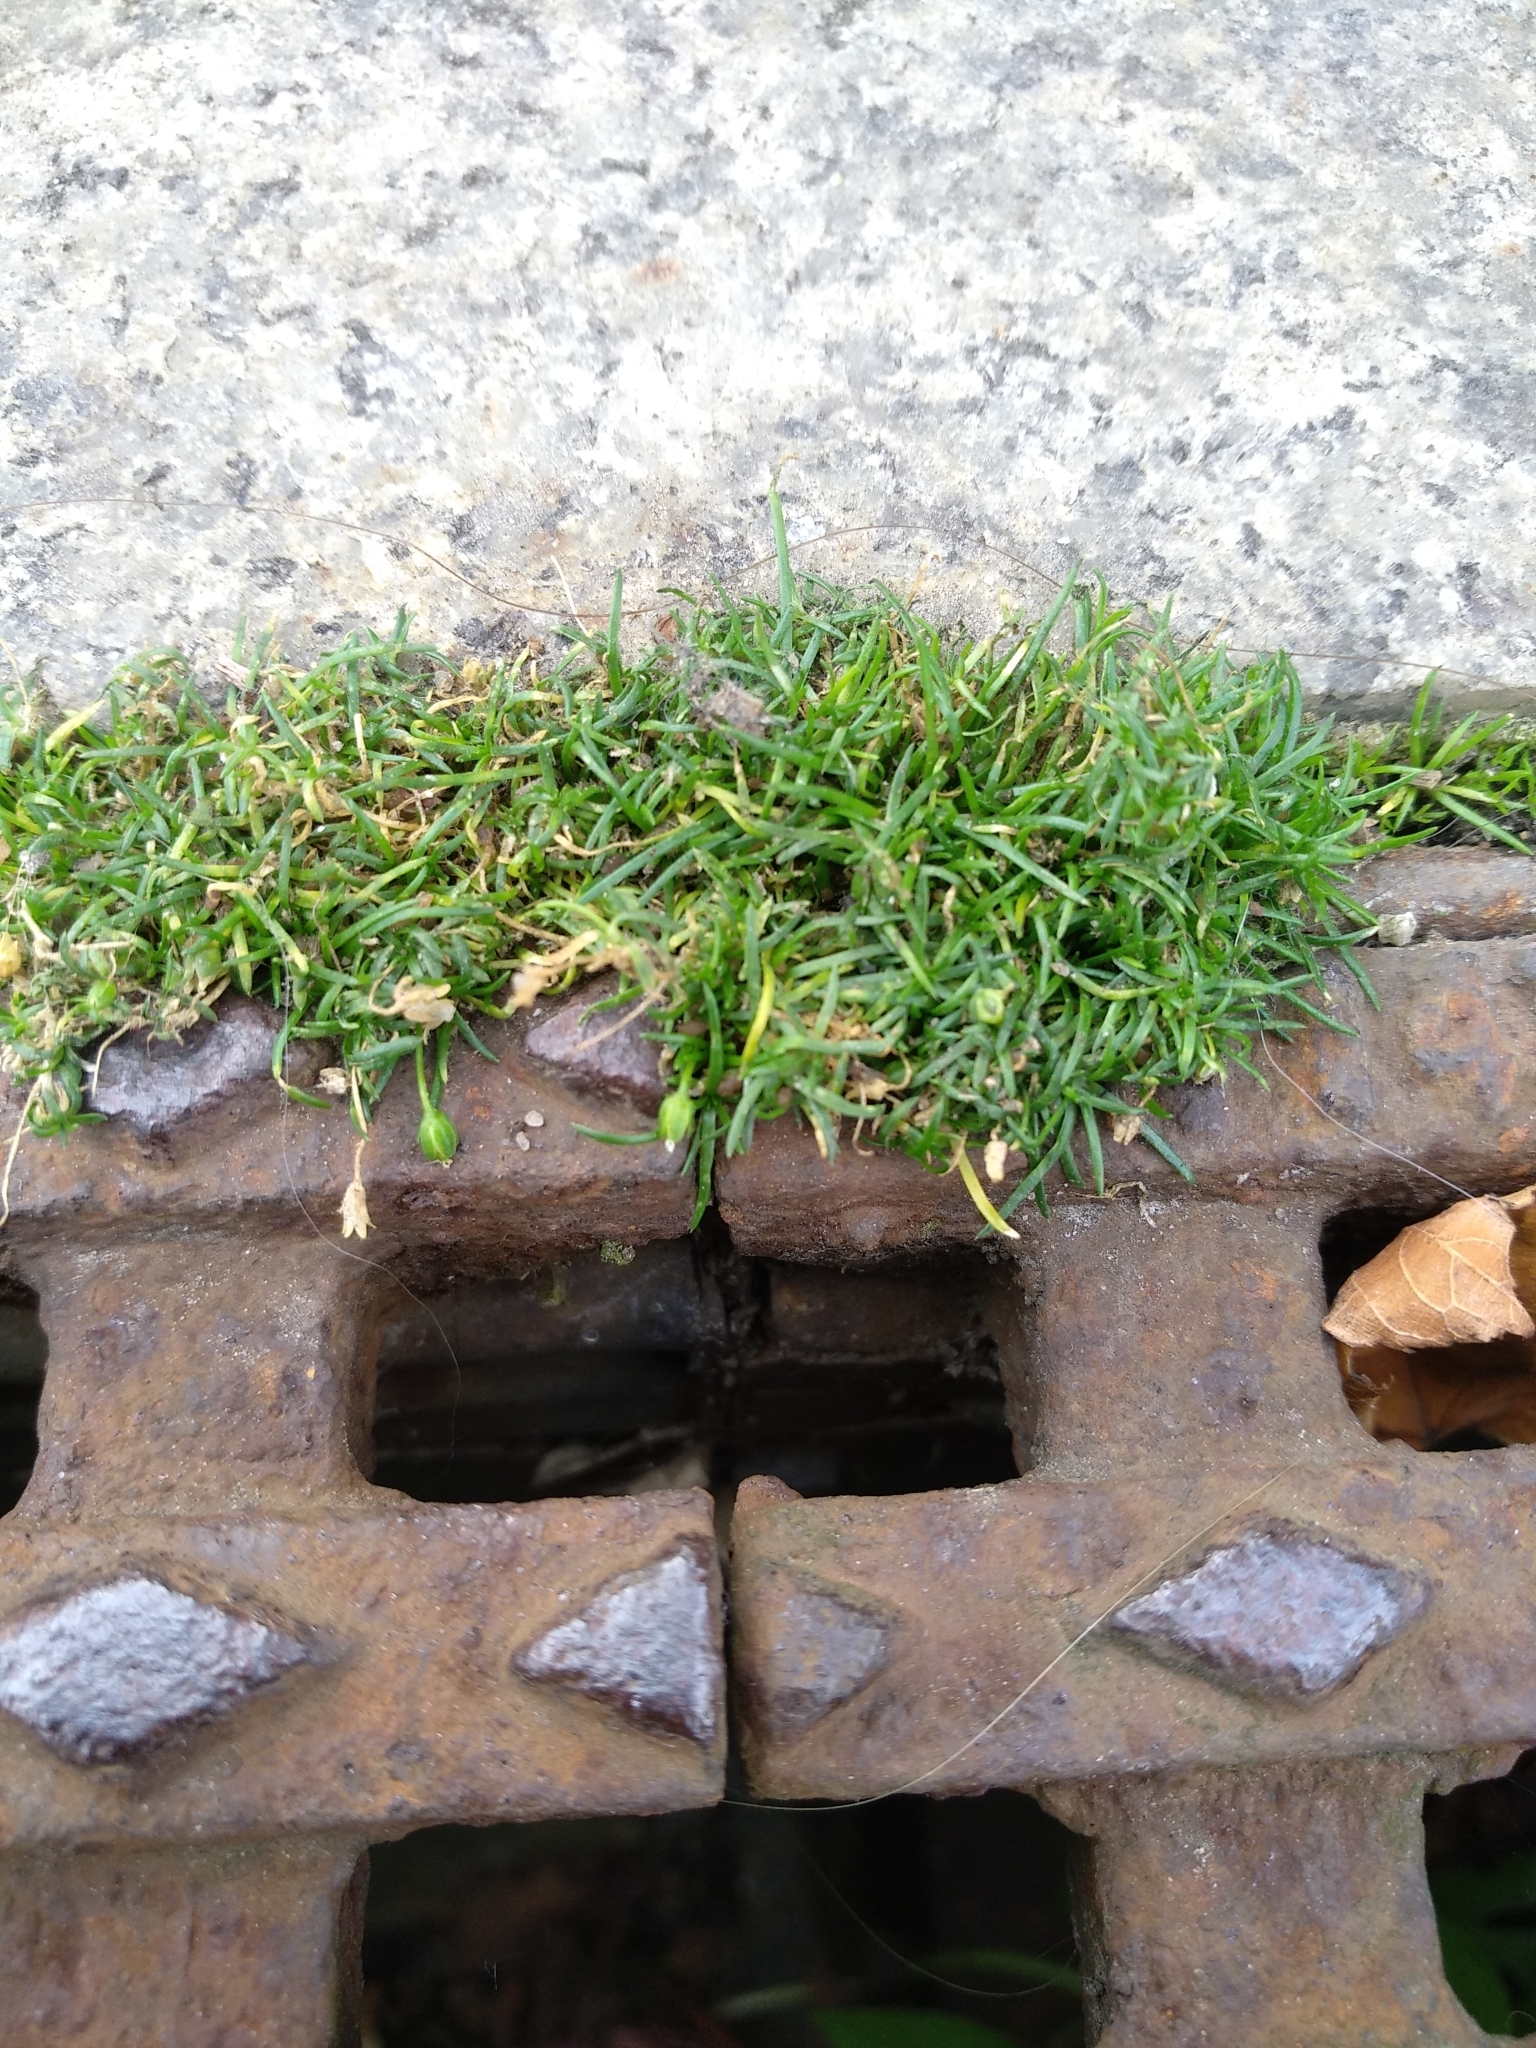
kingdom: Plantae
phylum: Tracheophyta
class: Magnoliopsida
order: Caryophyllales
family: Caryophyllaceae
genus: Sagina
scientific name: Sagina procumbens
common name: Procumbent pearlwort
